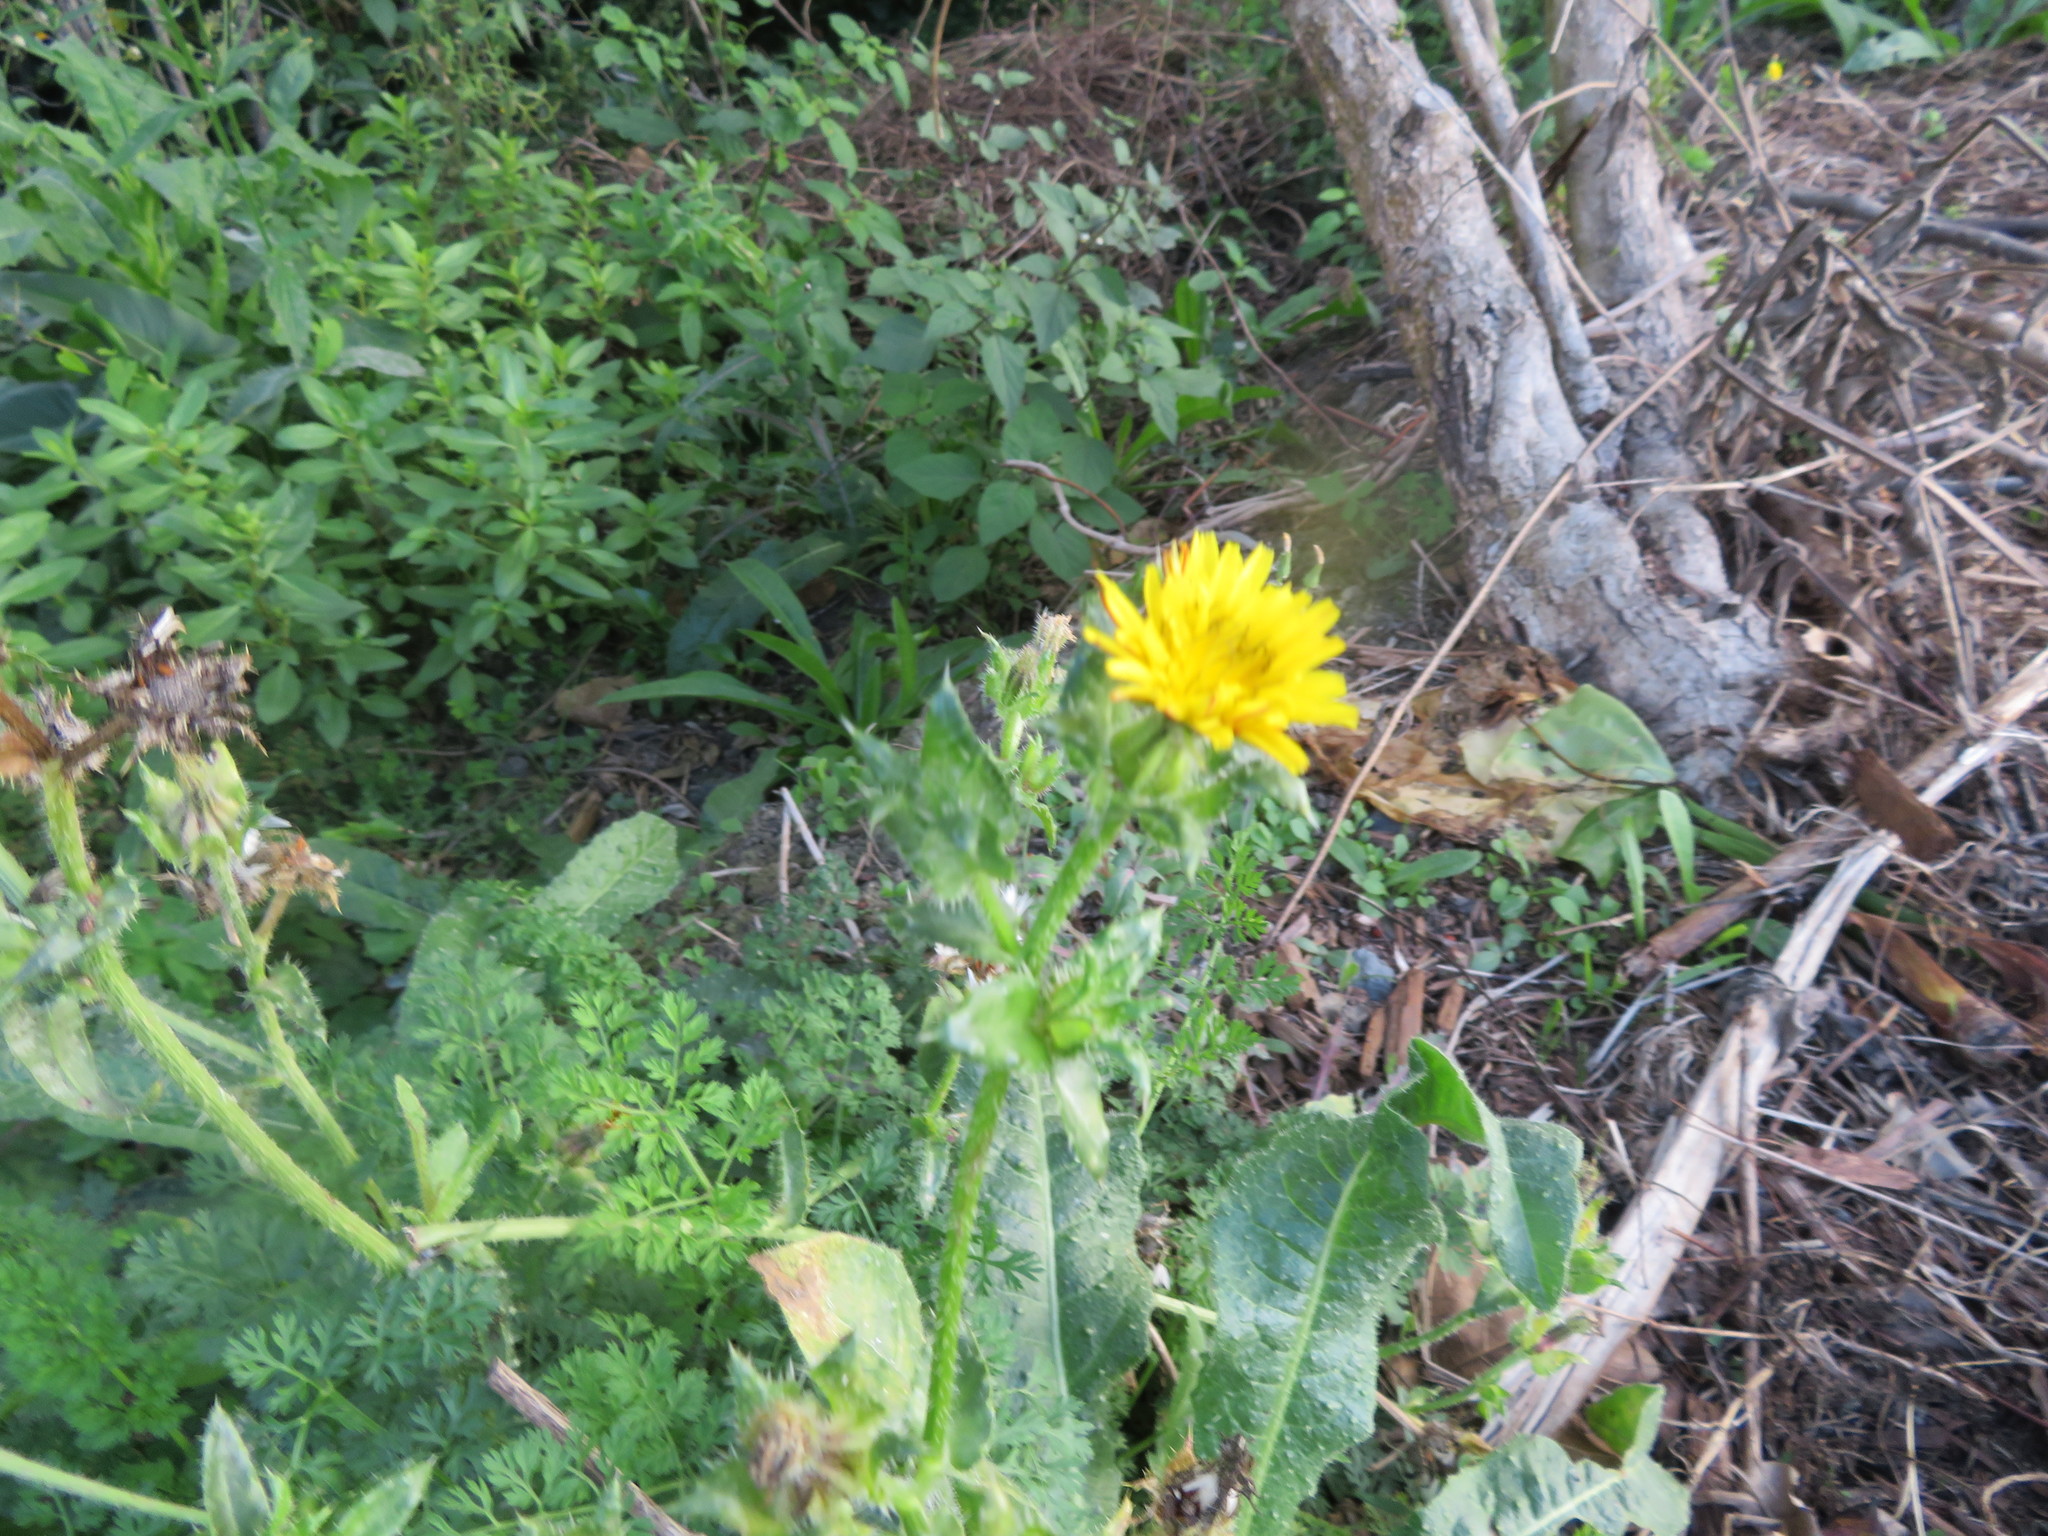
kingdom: Plantae
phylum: Tracheophyta
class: Magnoliopsida
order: Asterales
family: Asteraceae
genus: Helminthotheca
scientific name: Helminthotheca echioides
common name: Ox-tongue
